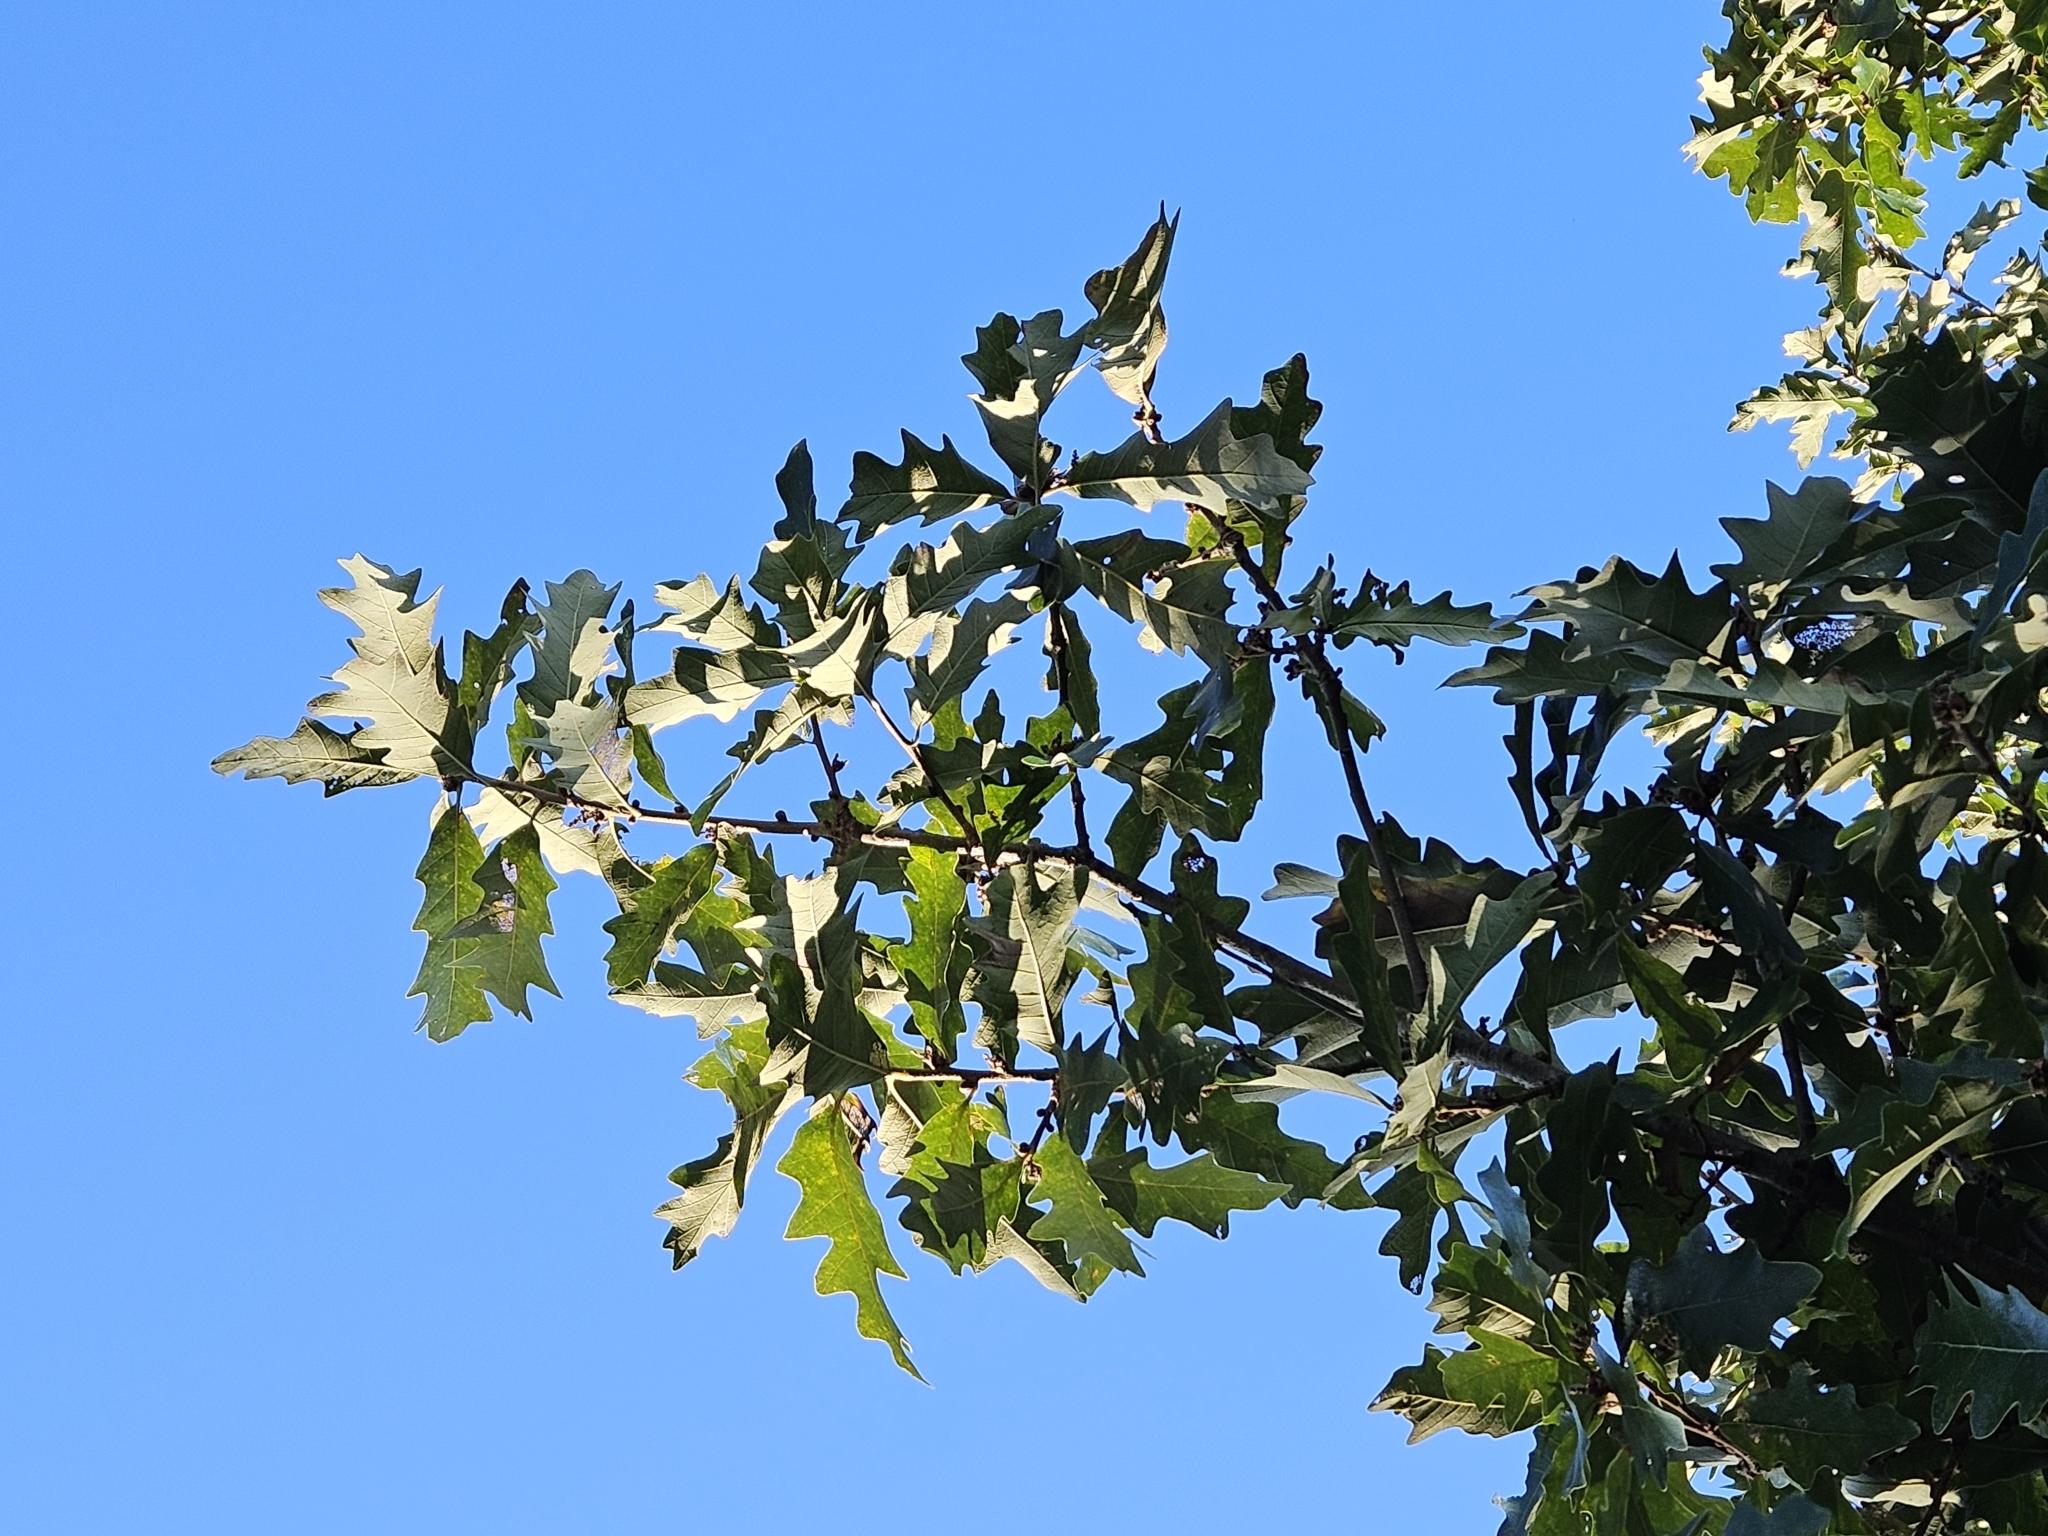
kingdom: Plantae
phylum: Tracheophyta
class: Magnoliopsida
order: Fagales
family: Fagaceae
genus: Quercus
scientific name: Quercus stelloides
